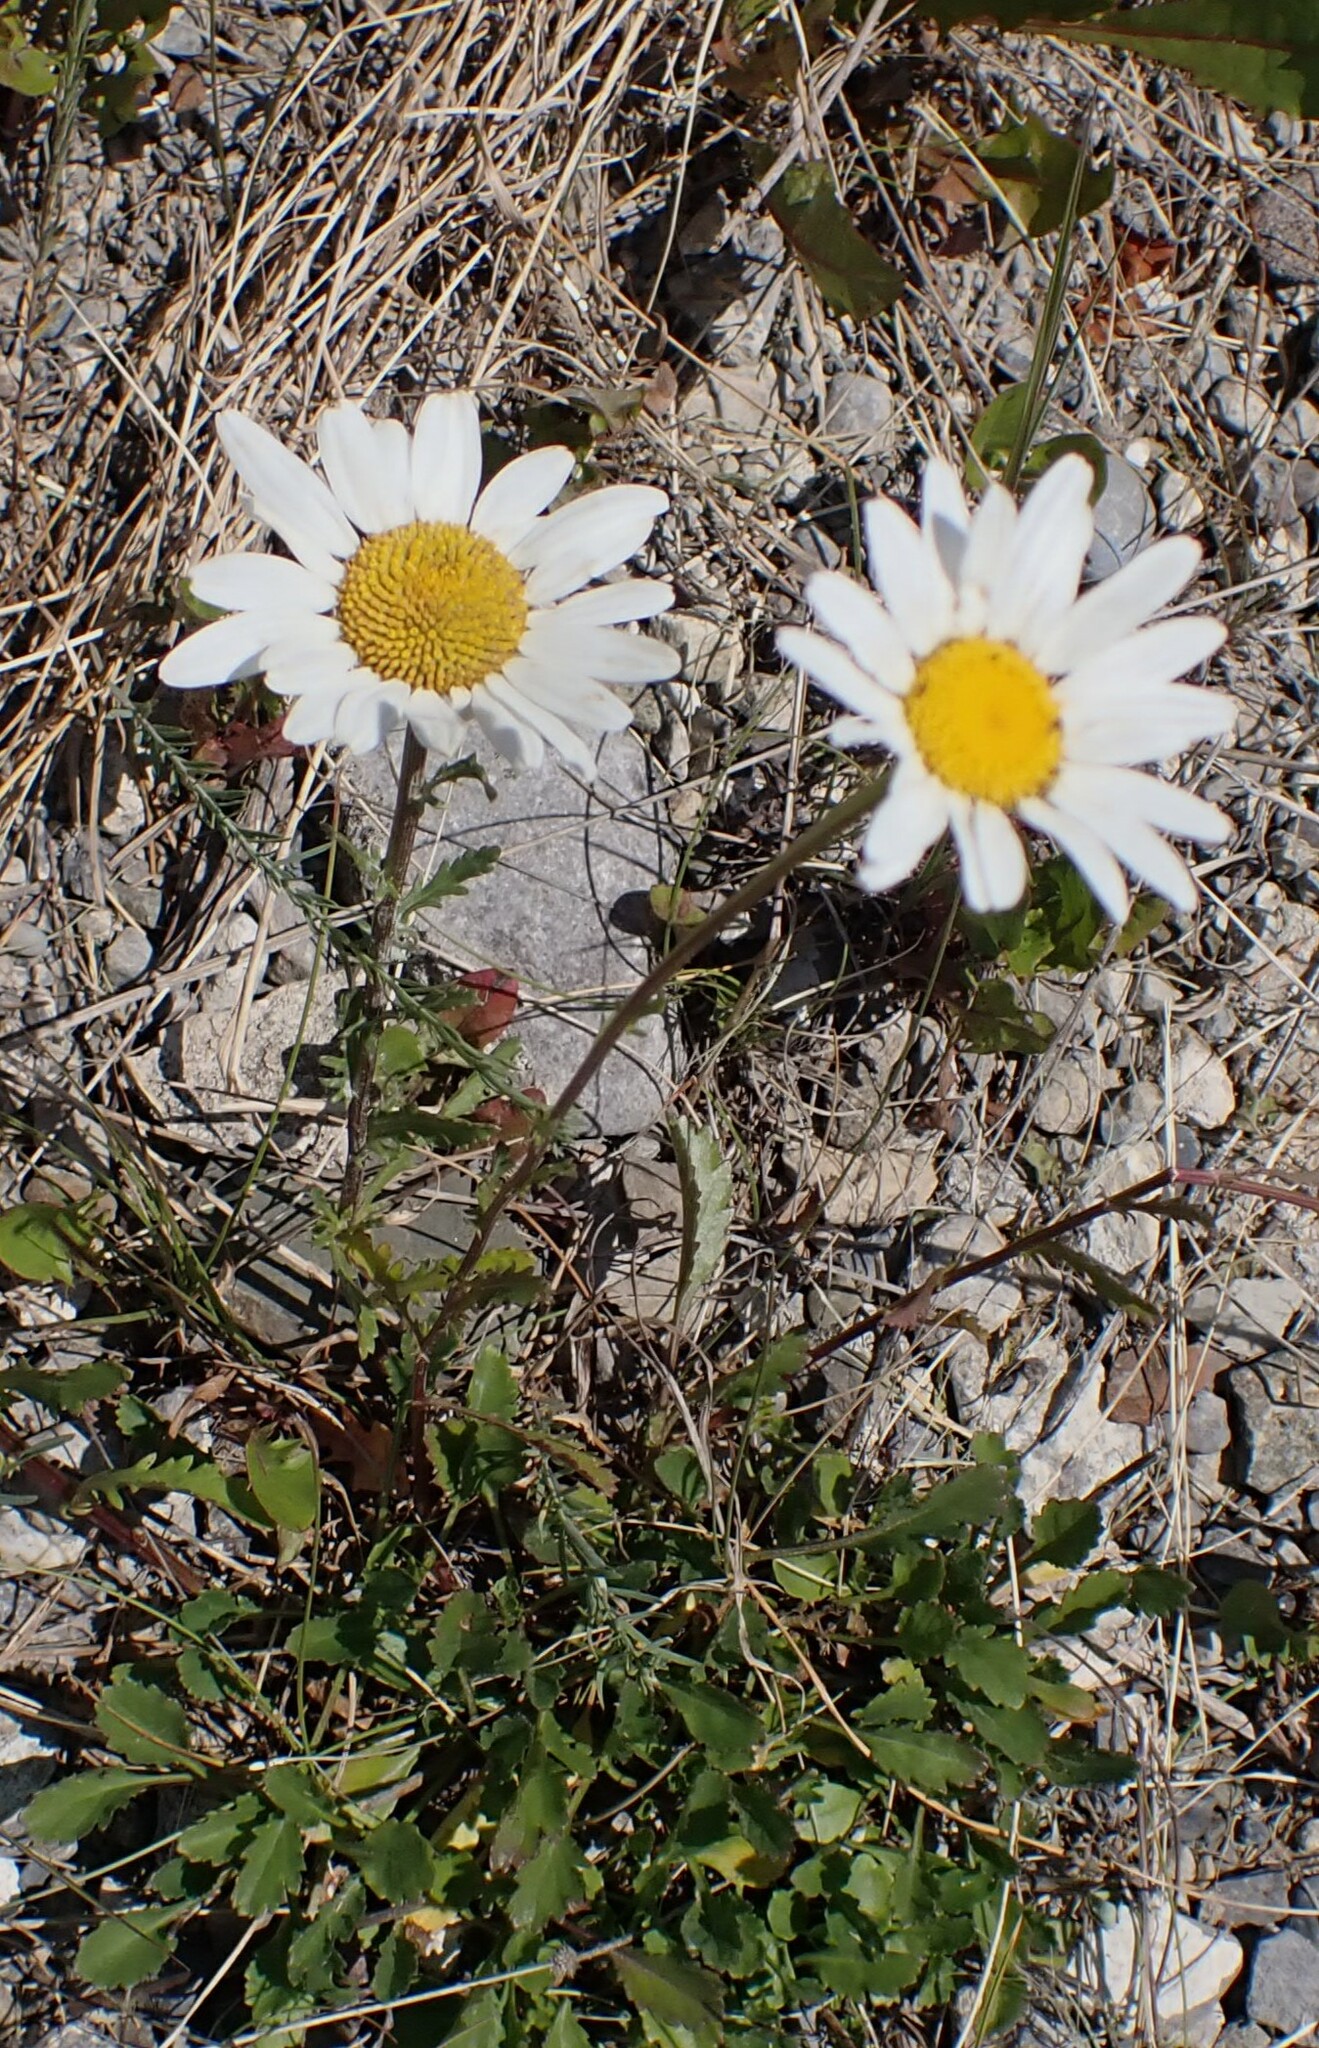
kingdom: Plantae
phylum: Tracheophyta
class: Magnoliopsida
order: Asterales
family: Asteraceae
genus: Leucanthemum
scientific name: Leucanthemum vulgare
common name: Oxeye daisy
